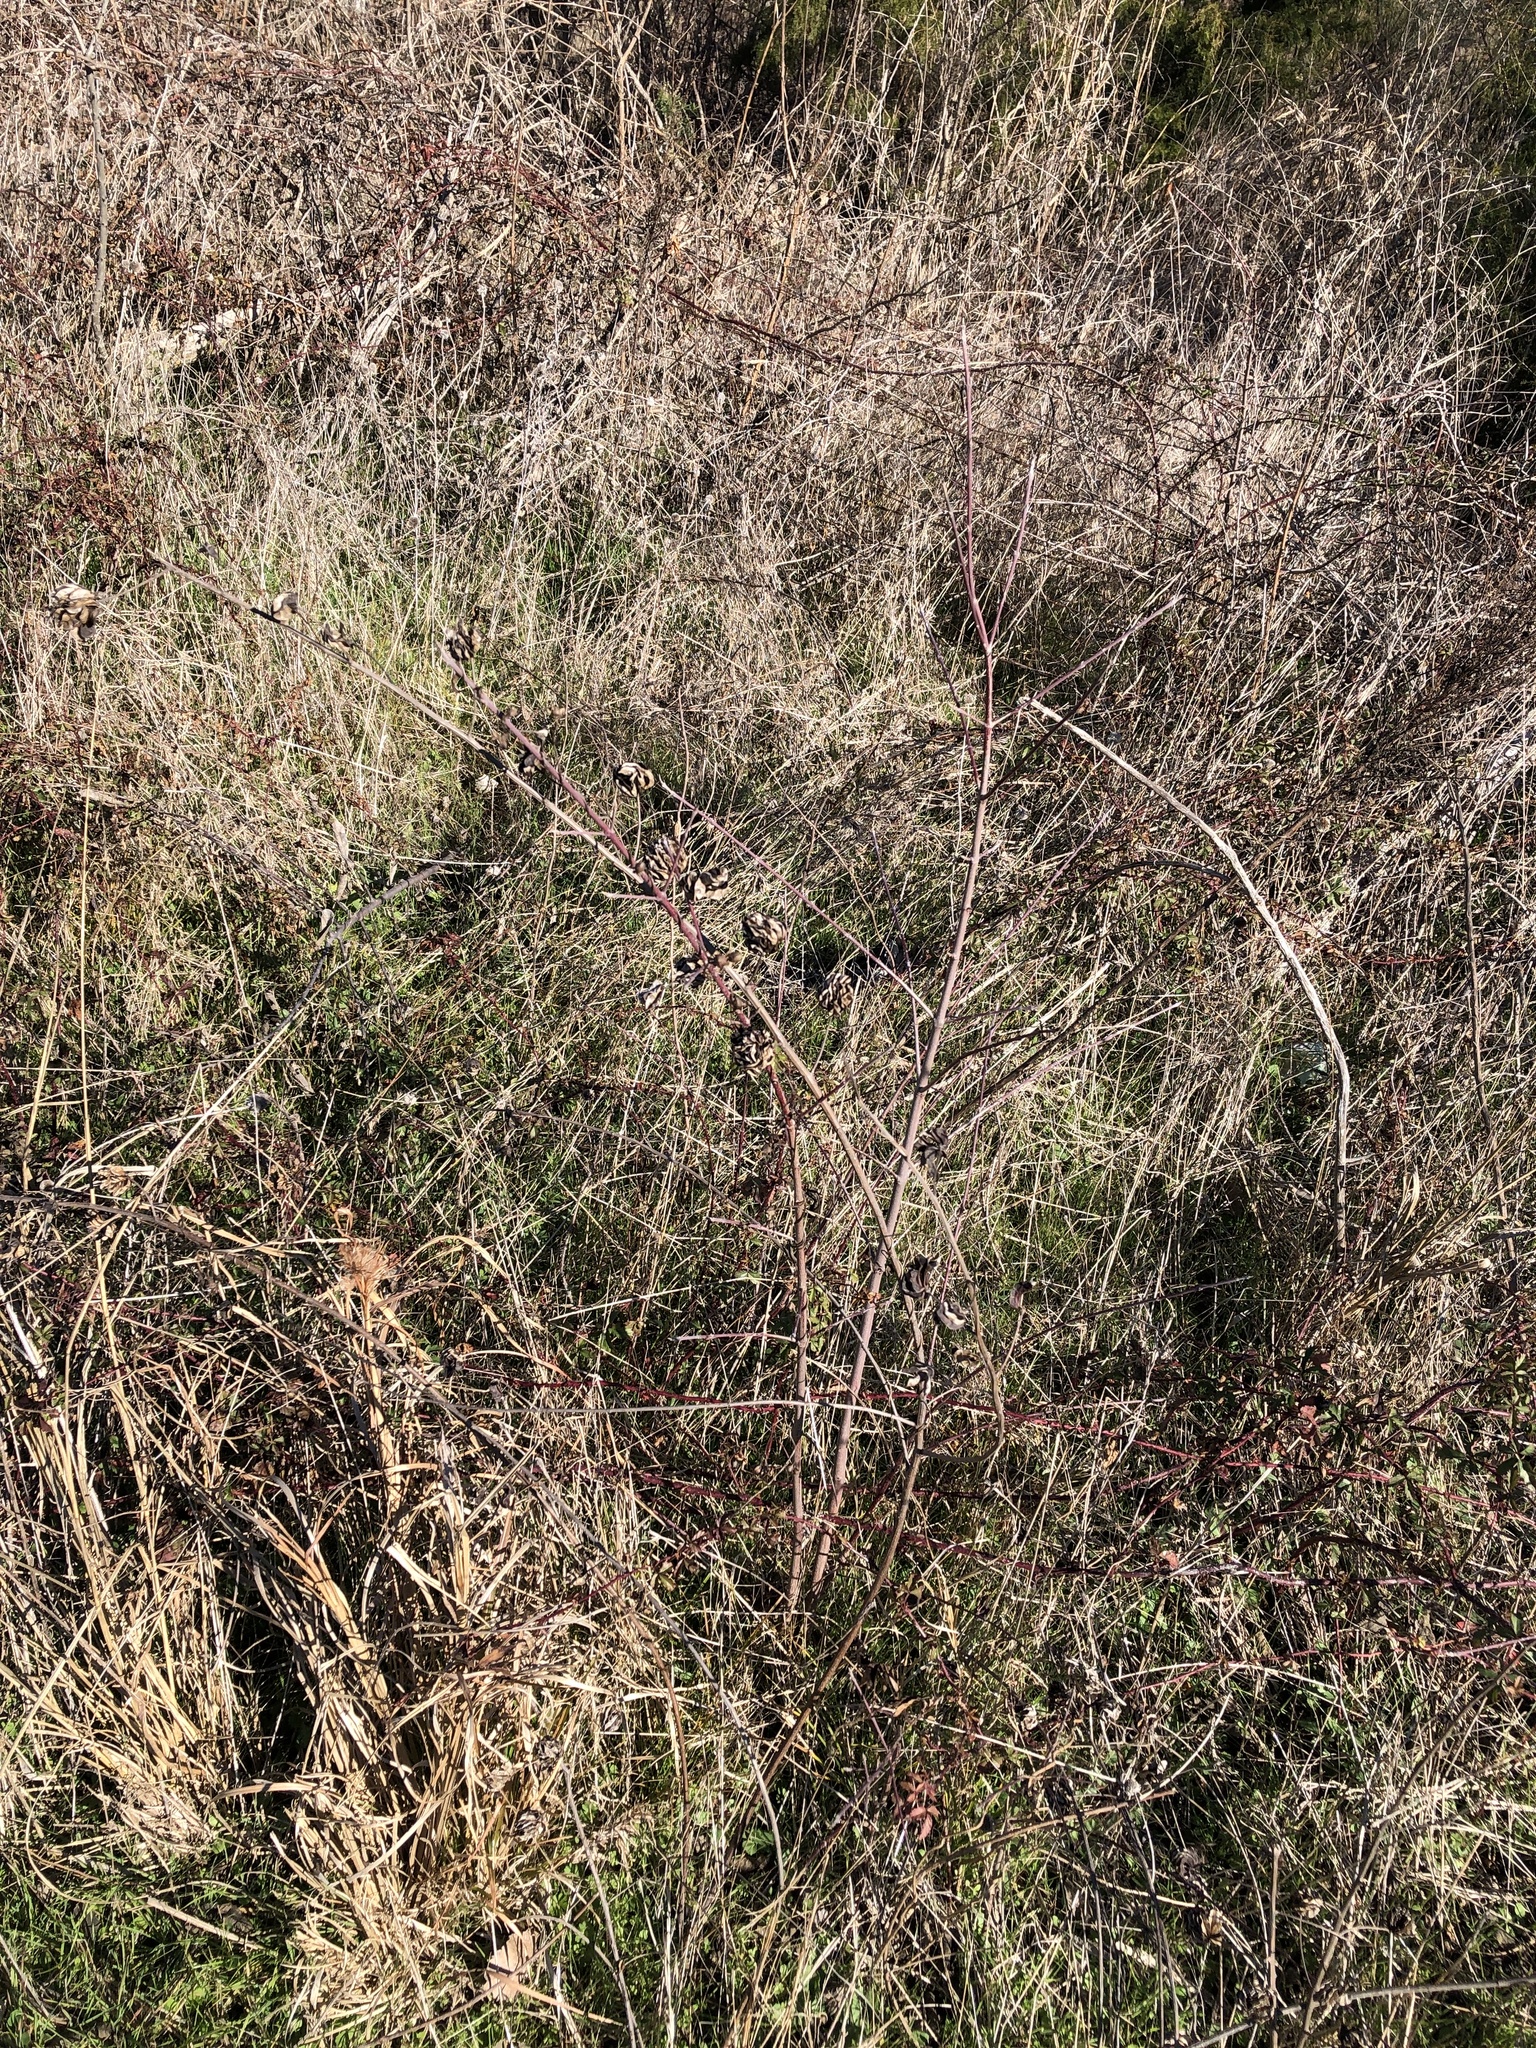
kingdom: Plantae
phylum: Tracheophyta
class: Magnoliopsida
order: Fabales
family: Fabaceae
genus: Desmanthus
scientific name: Desmanthus illinoensis
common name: Illinois bundle-flower
